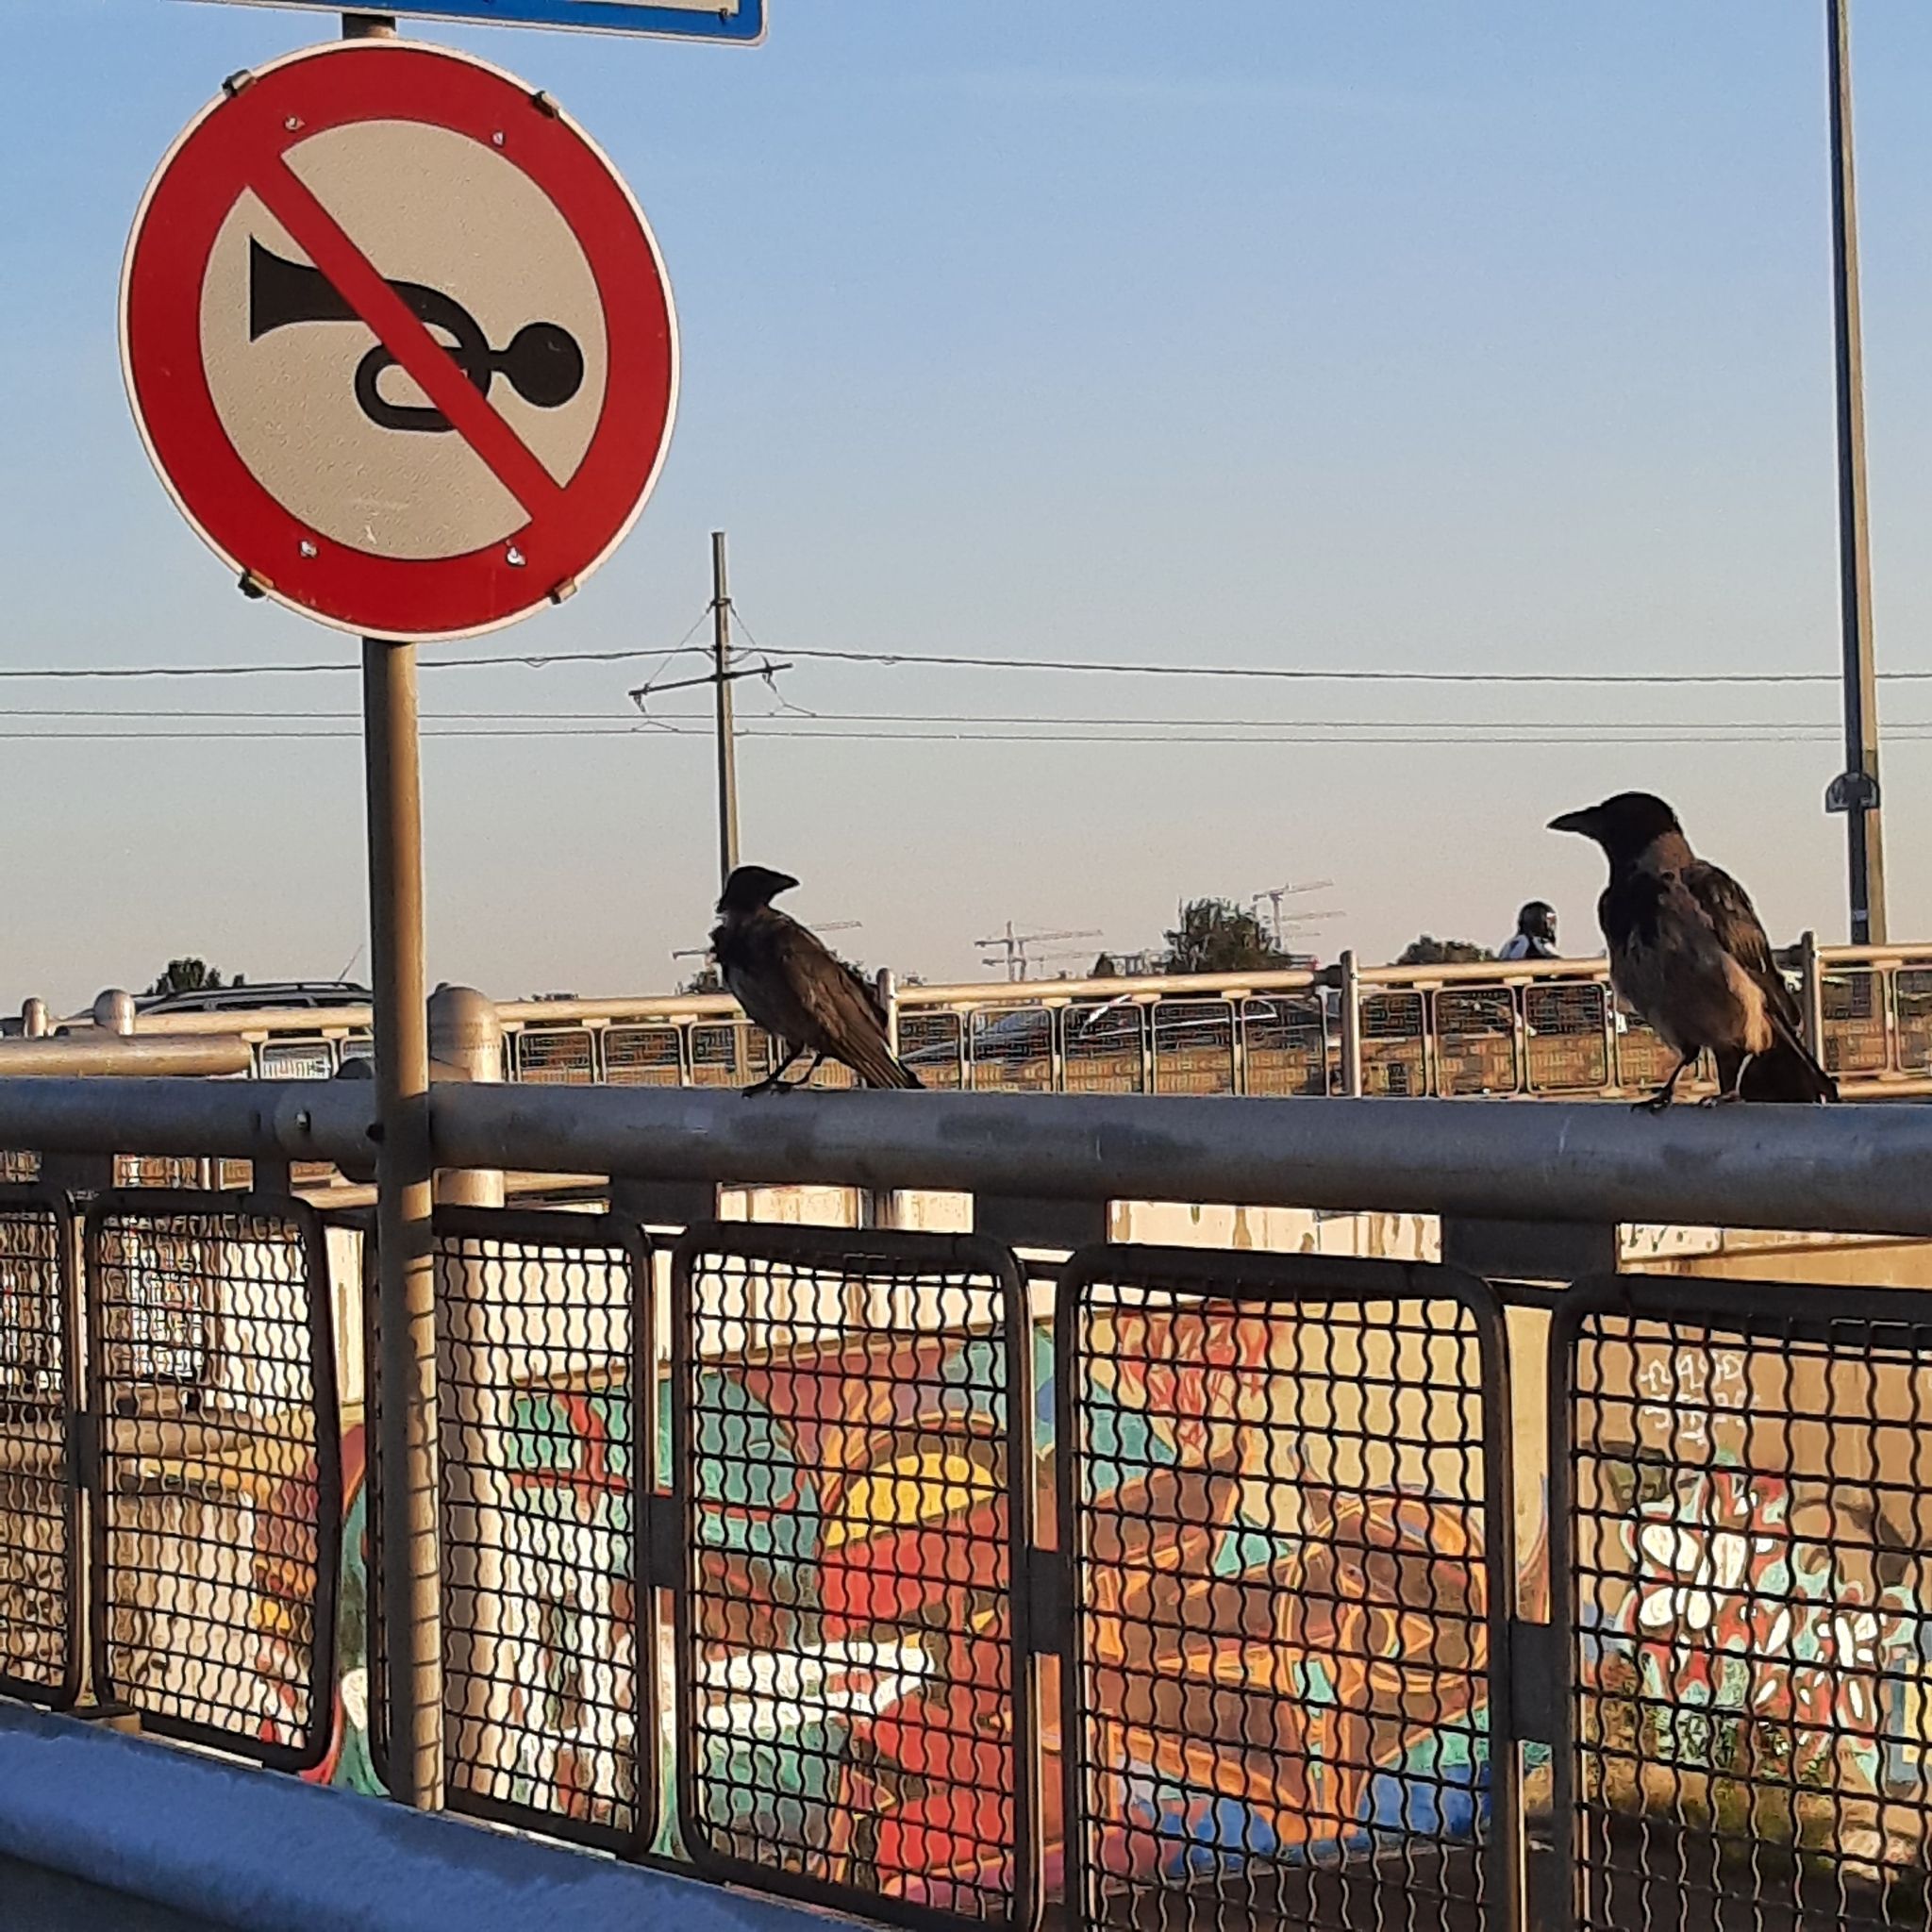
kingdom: Animalia
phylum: Chordata
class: Aves
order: Passeriformes
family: Corvidae
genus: Corvus
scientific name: Corvus
